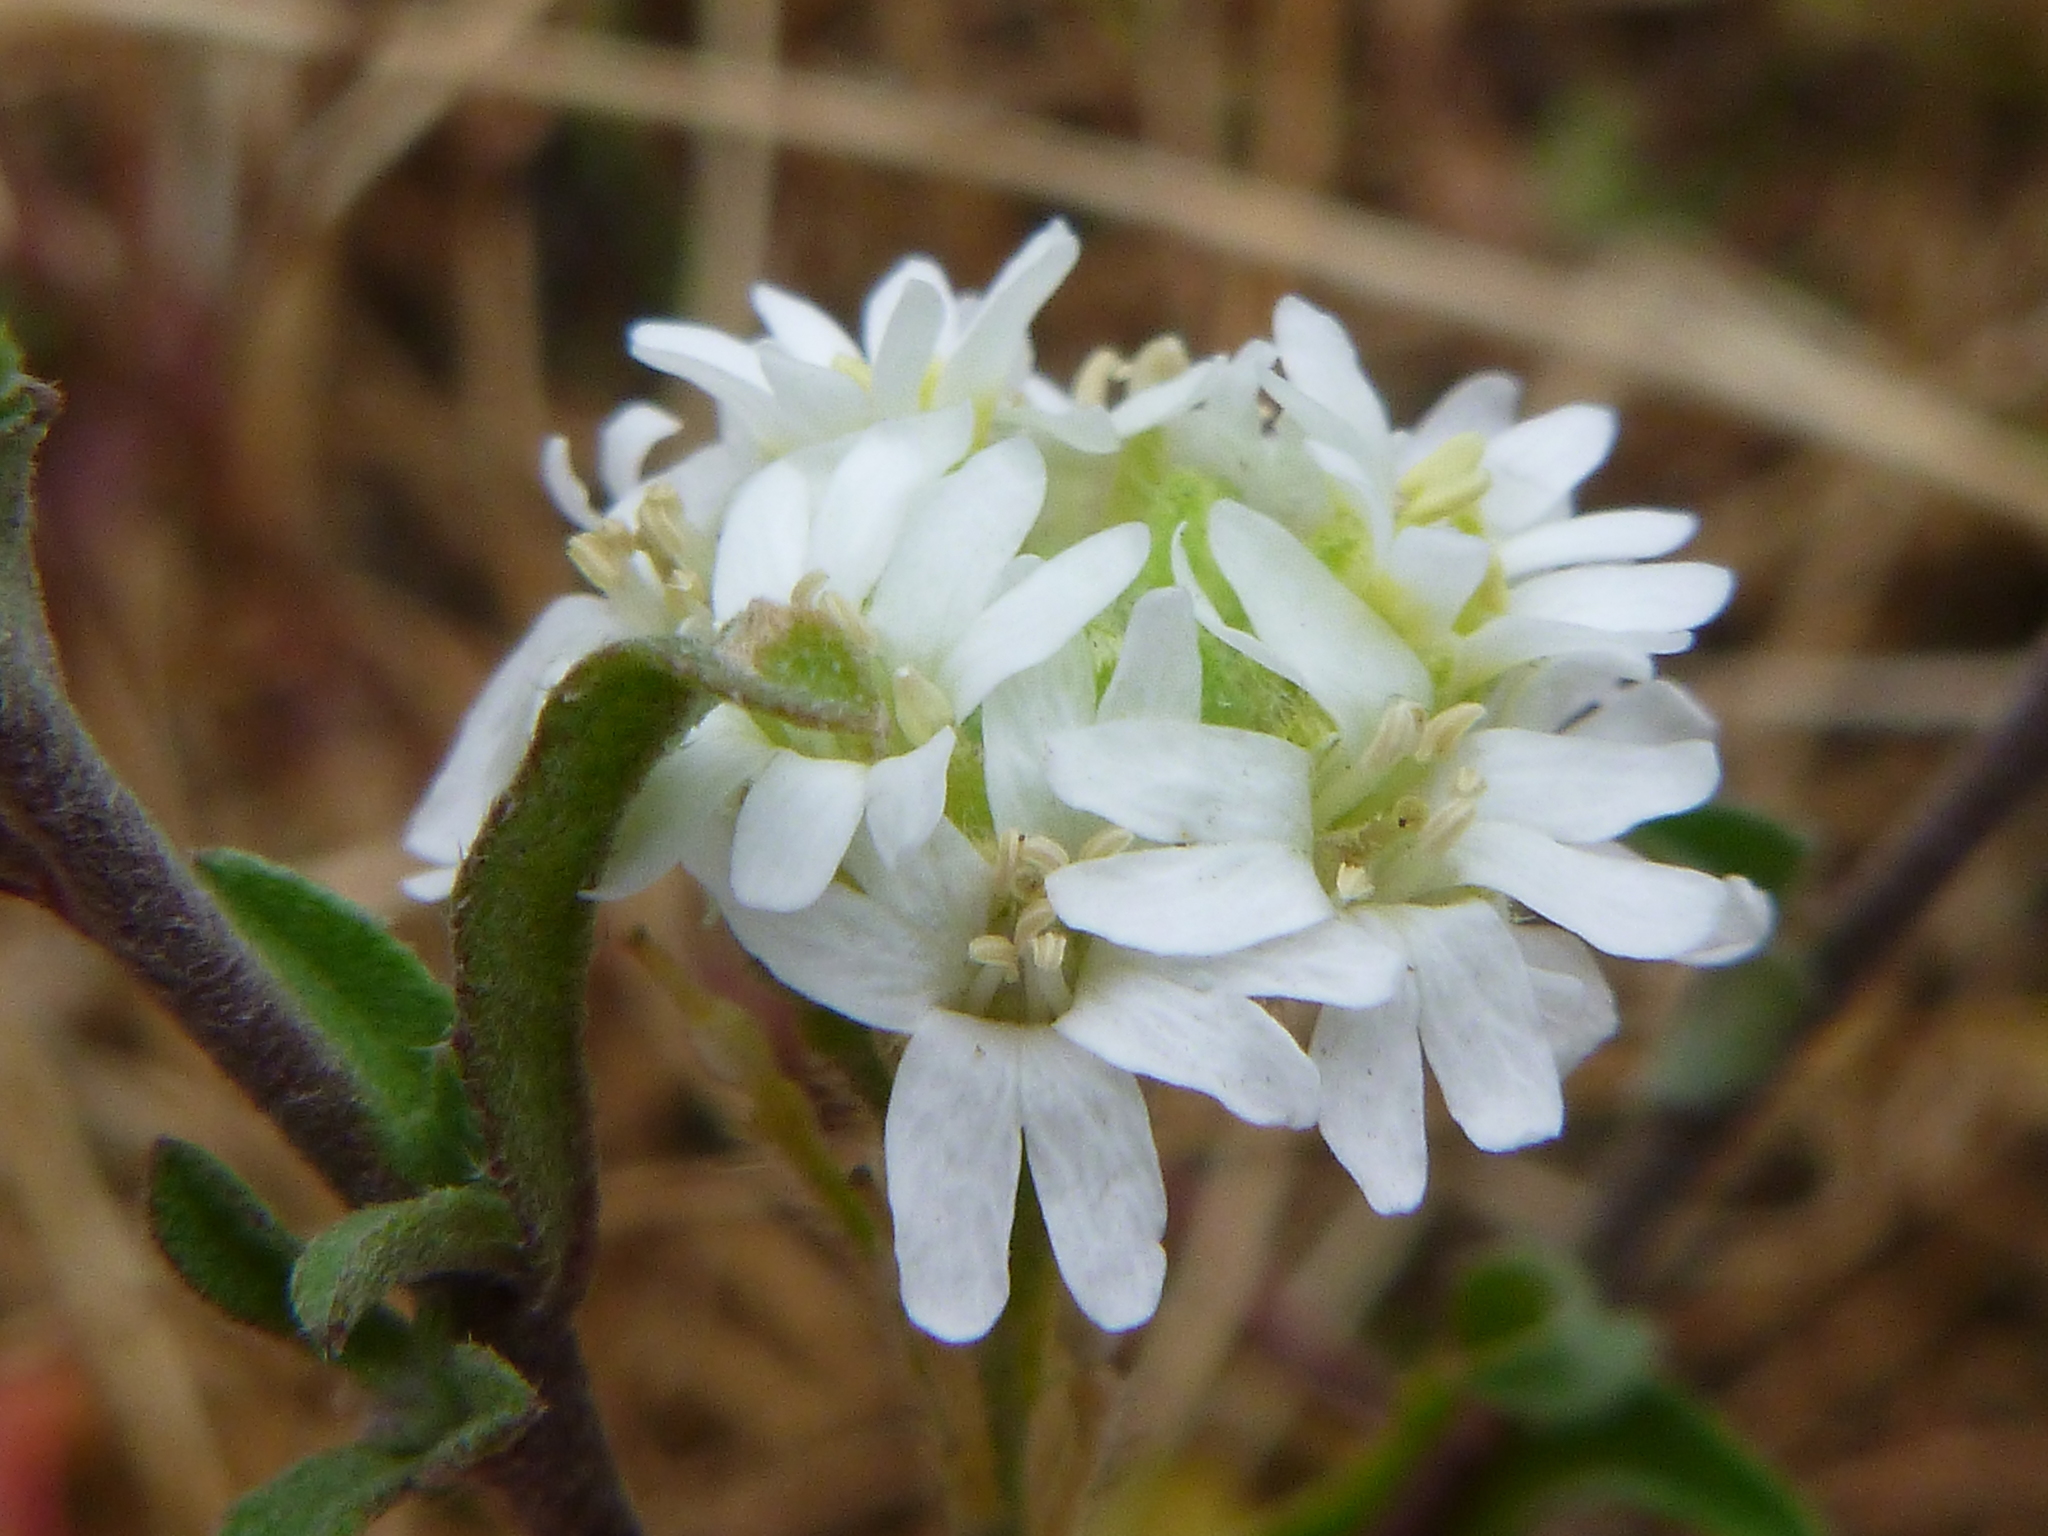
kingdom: Plantae
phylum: Tracheophyta
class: Magnoliopsida
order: Brassicales
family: Brassicaceae
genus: Berteroa
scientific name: Berteroa incana
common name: Hoary alison
